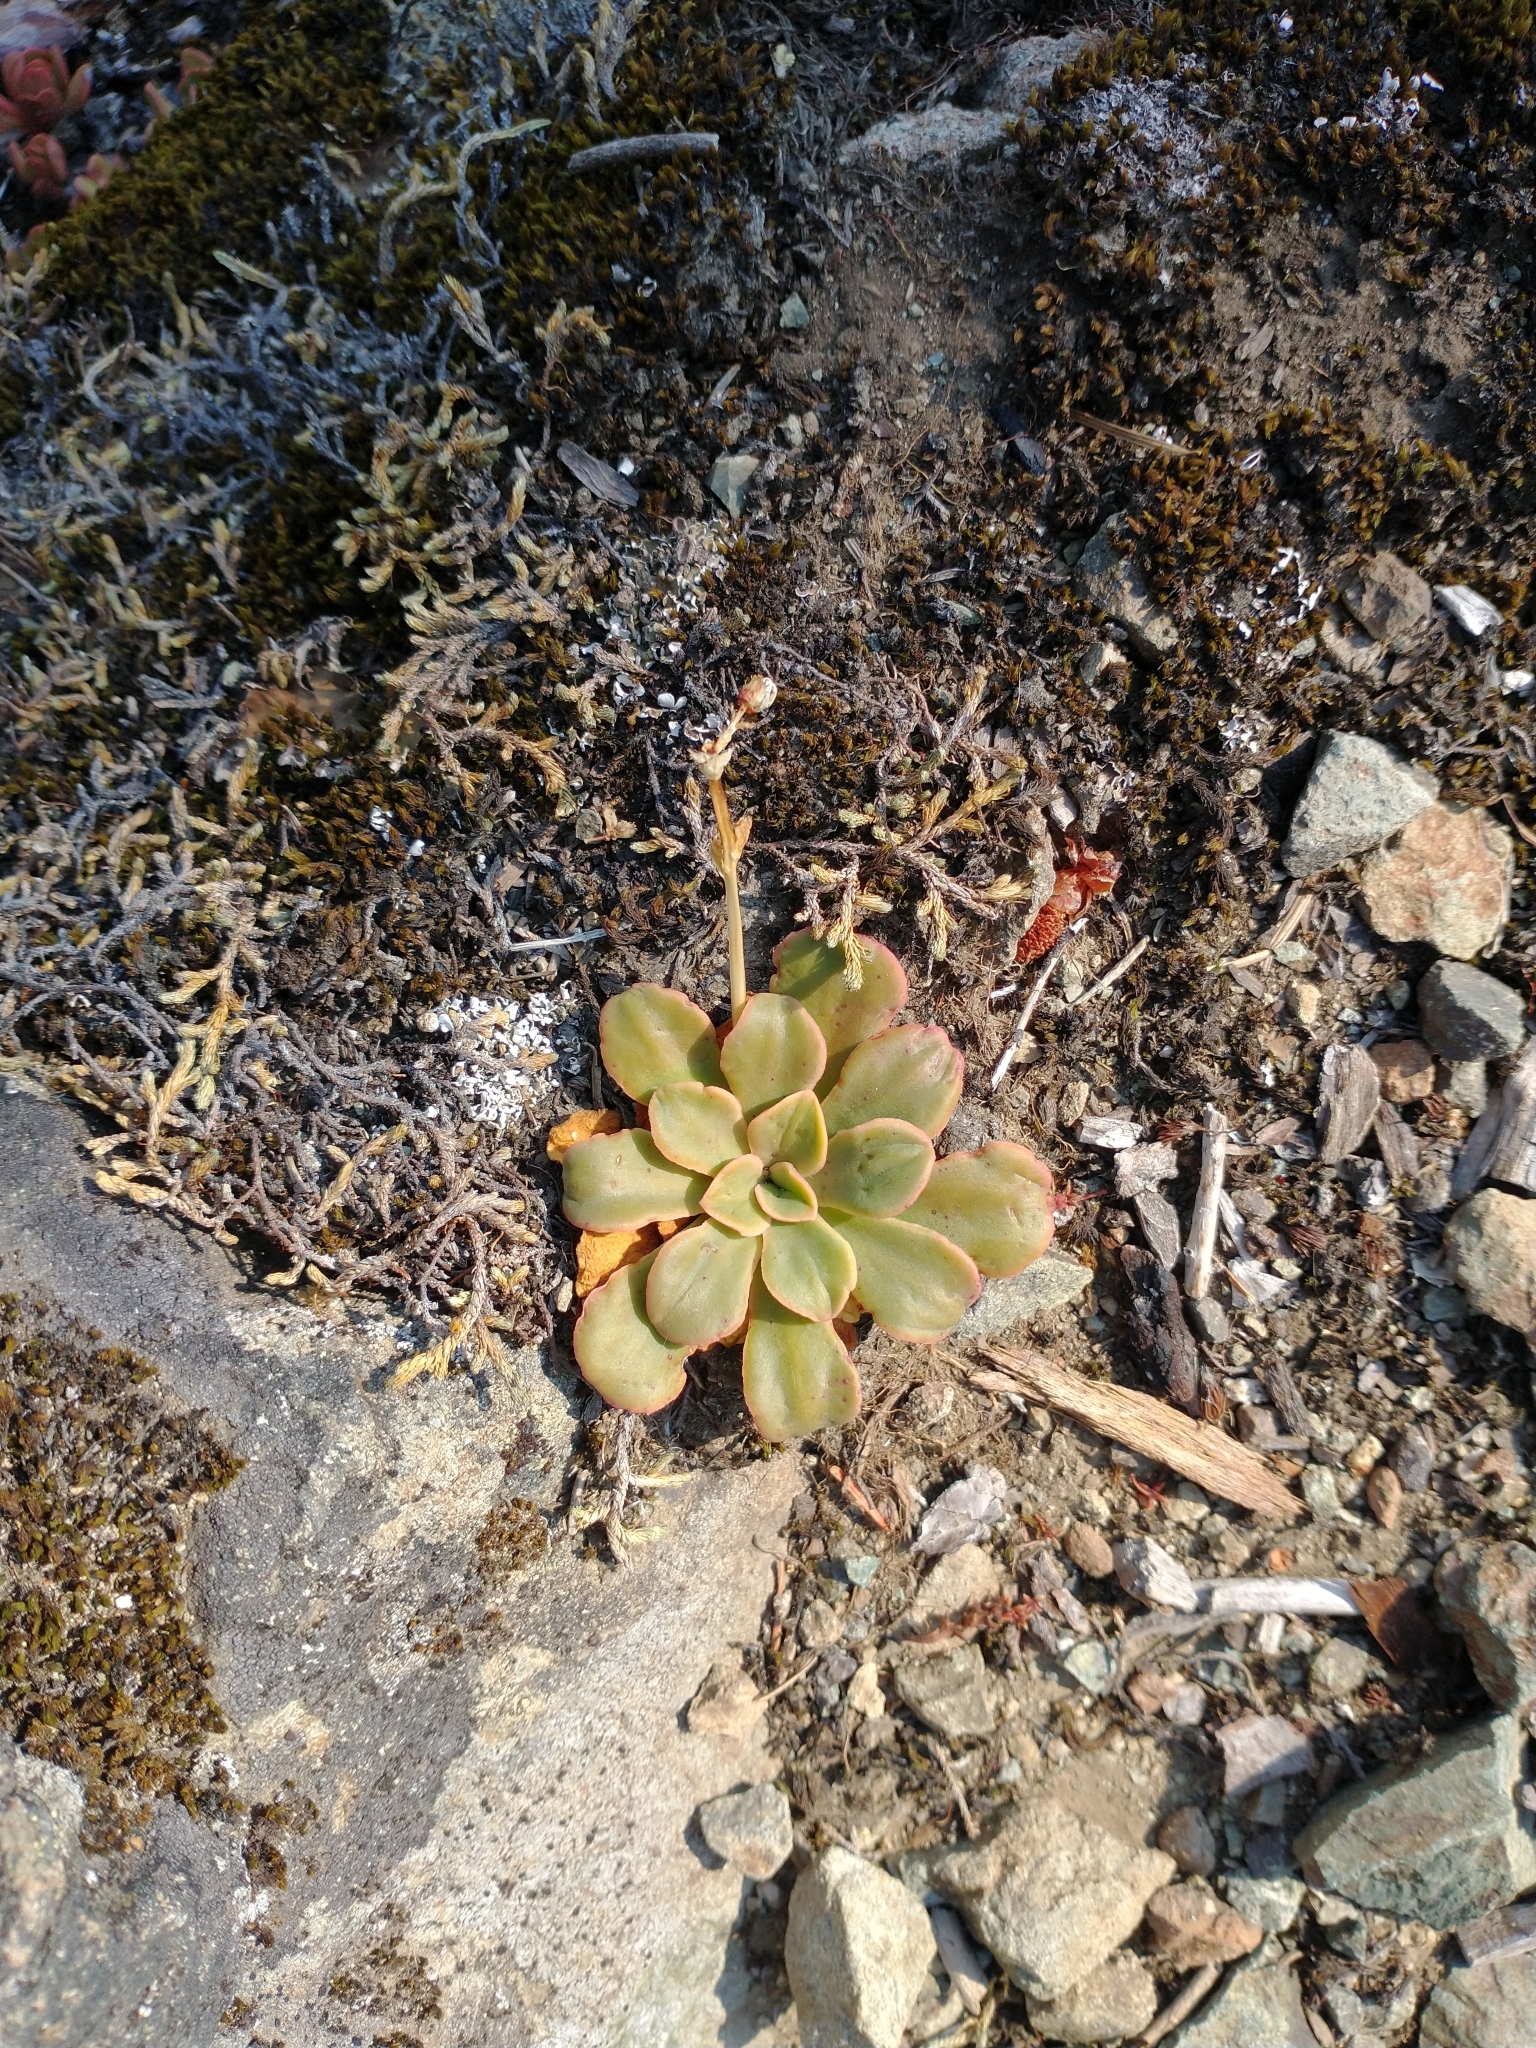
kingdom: Plantae
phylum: Tracheophyta
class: Magnoliopsida
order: Caryophyllales
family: Montiaceae
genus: Lewisia
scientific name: Lewisia cotyledon
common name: Siskiyou lewisia
